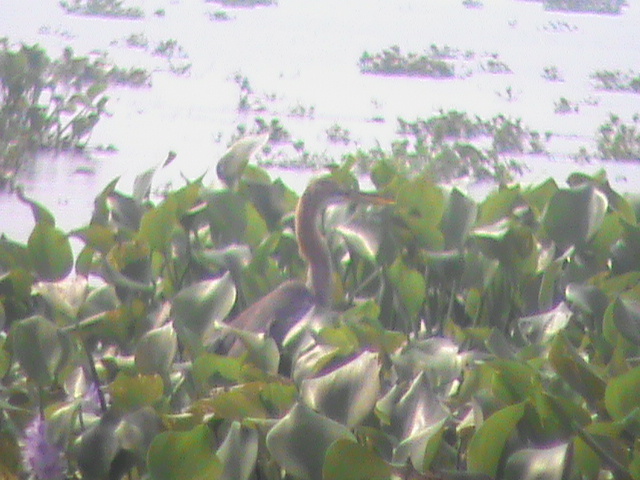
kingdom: Animalia
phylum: Chordata
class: Aves
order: Pelecaniformes
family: Ardeidae
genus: Ardea
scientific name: Ardea purpurea
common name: Purple heron
